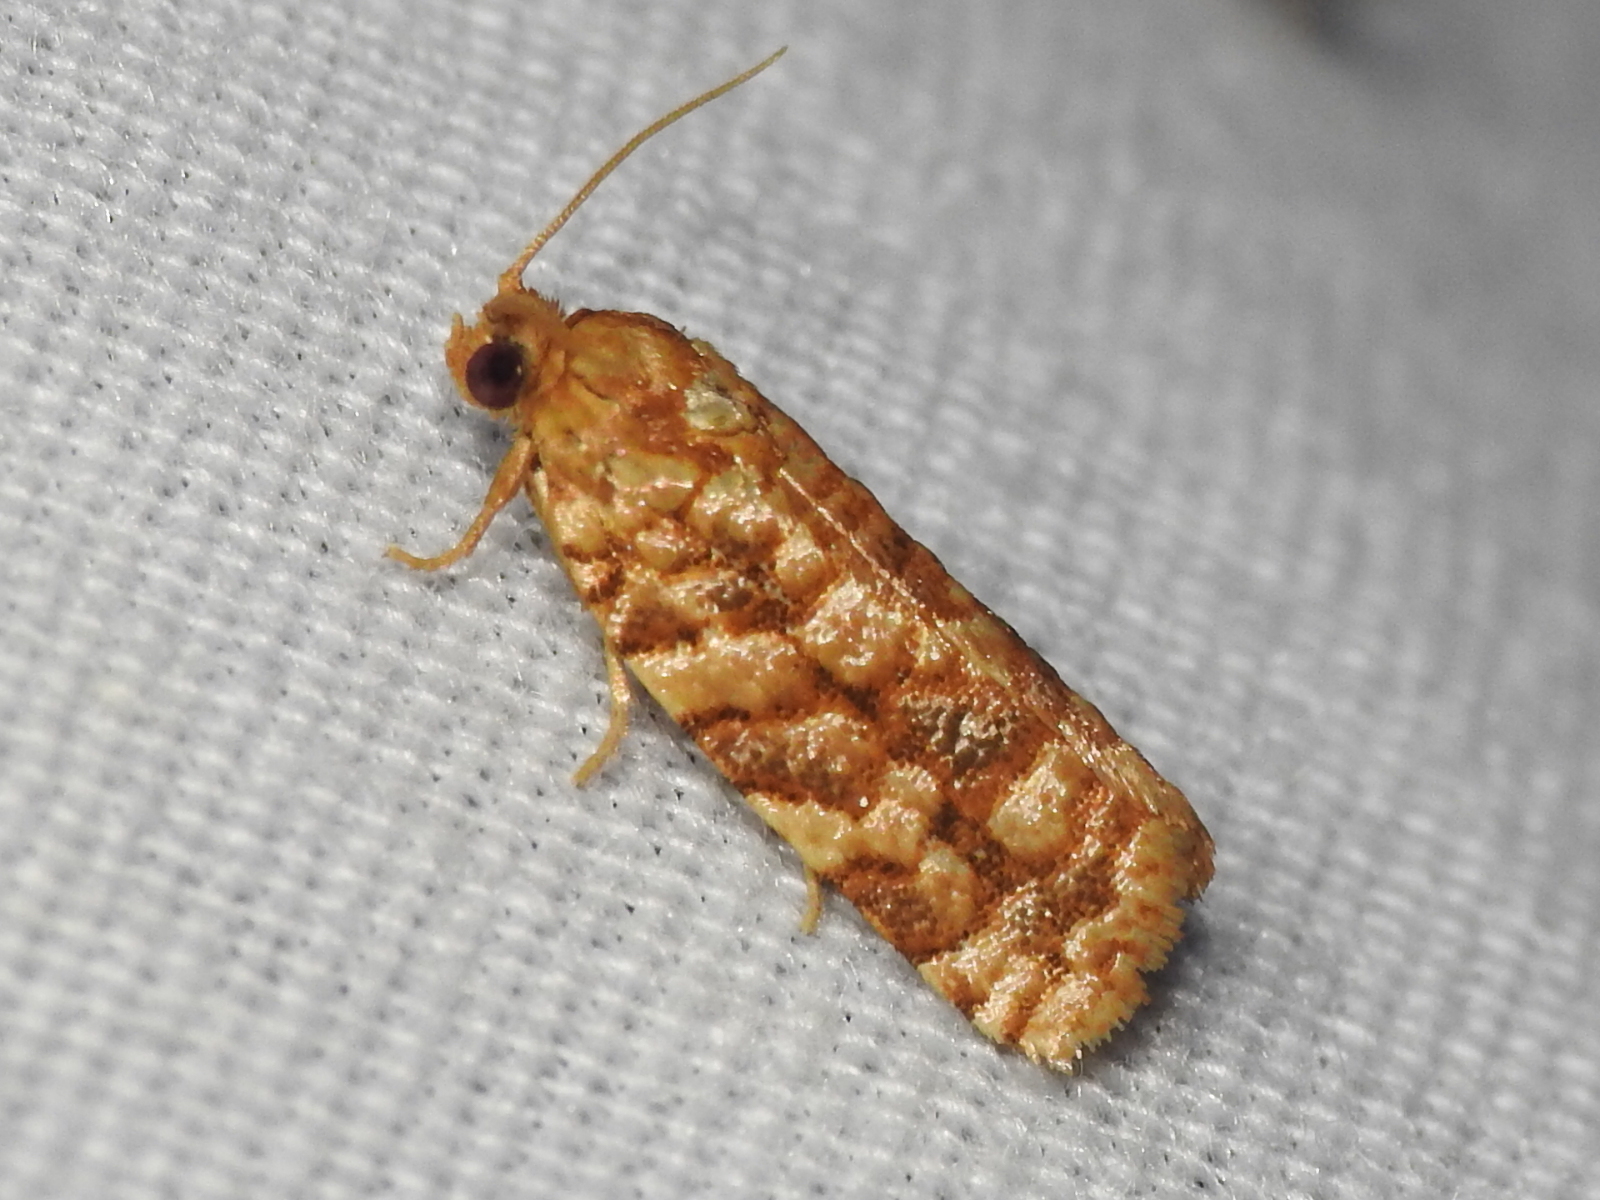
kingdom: Animalia
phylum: Arthropoda
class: Insecta
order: Lepidoptera
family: Tortricidae
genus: Choristoneura
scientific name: Choristoneura houstonana
